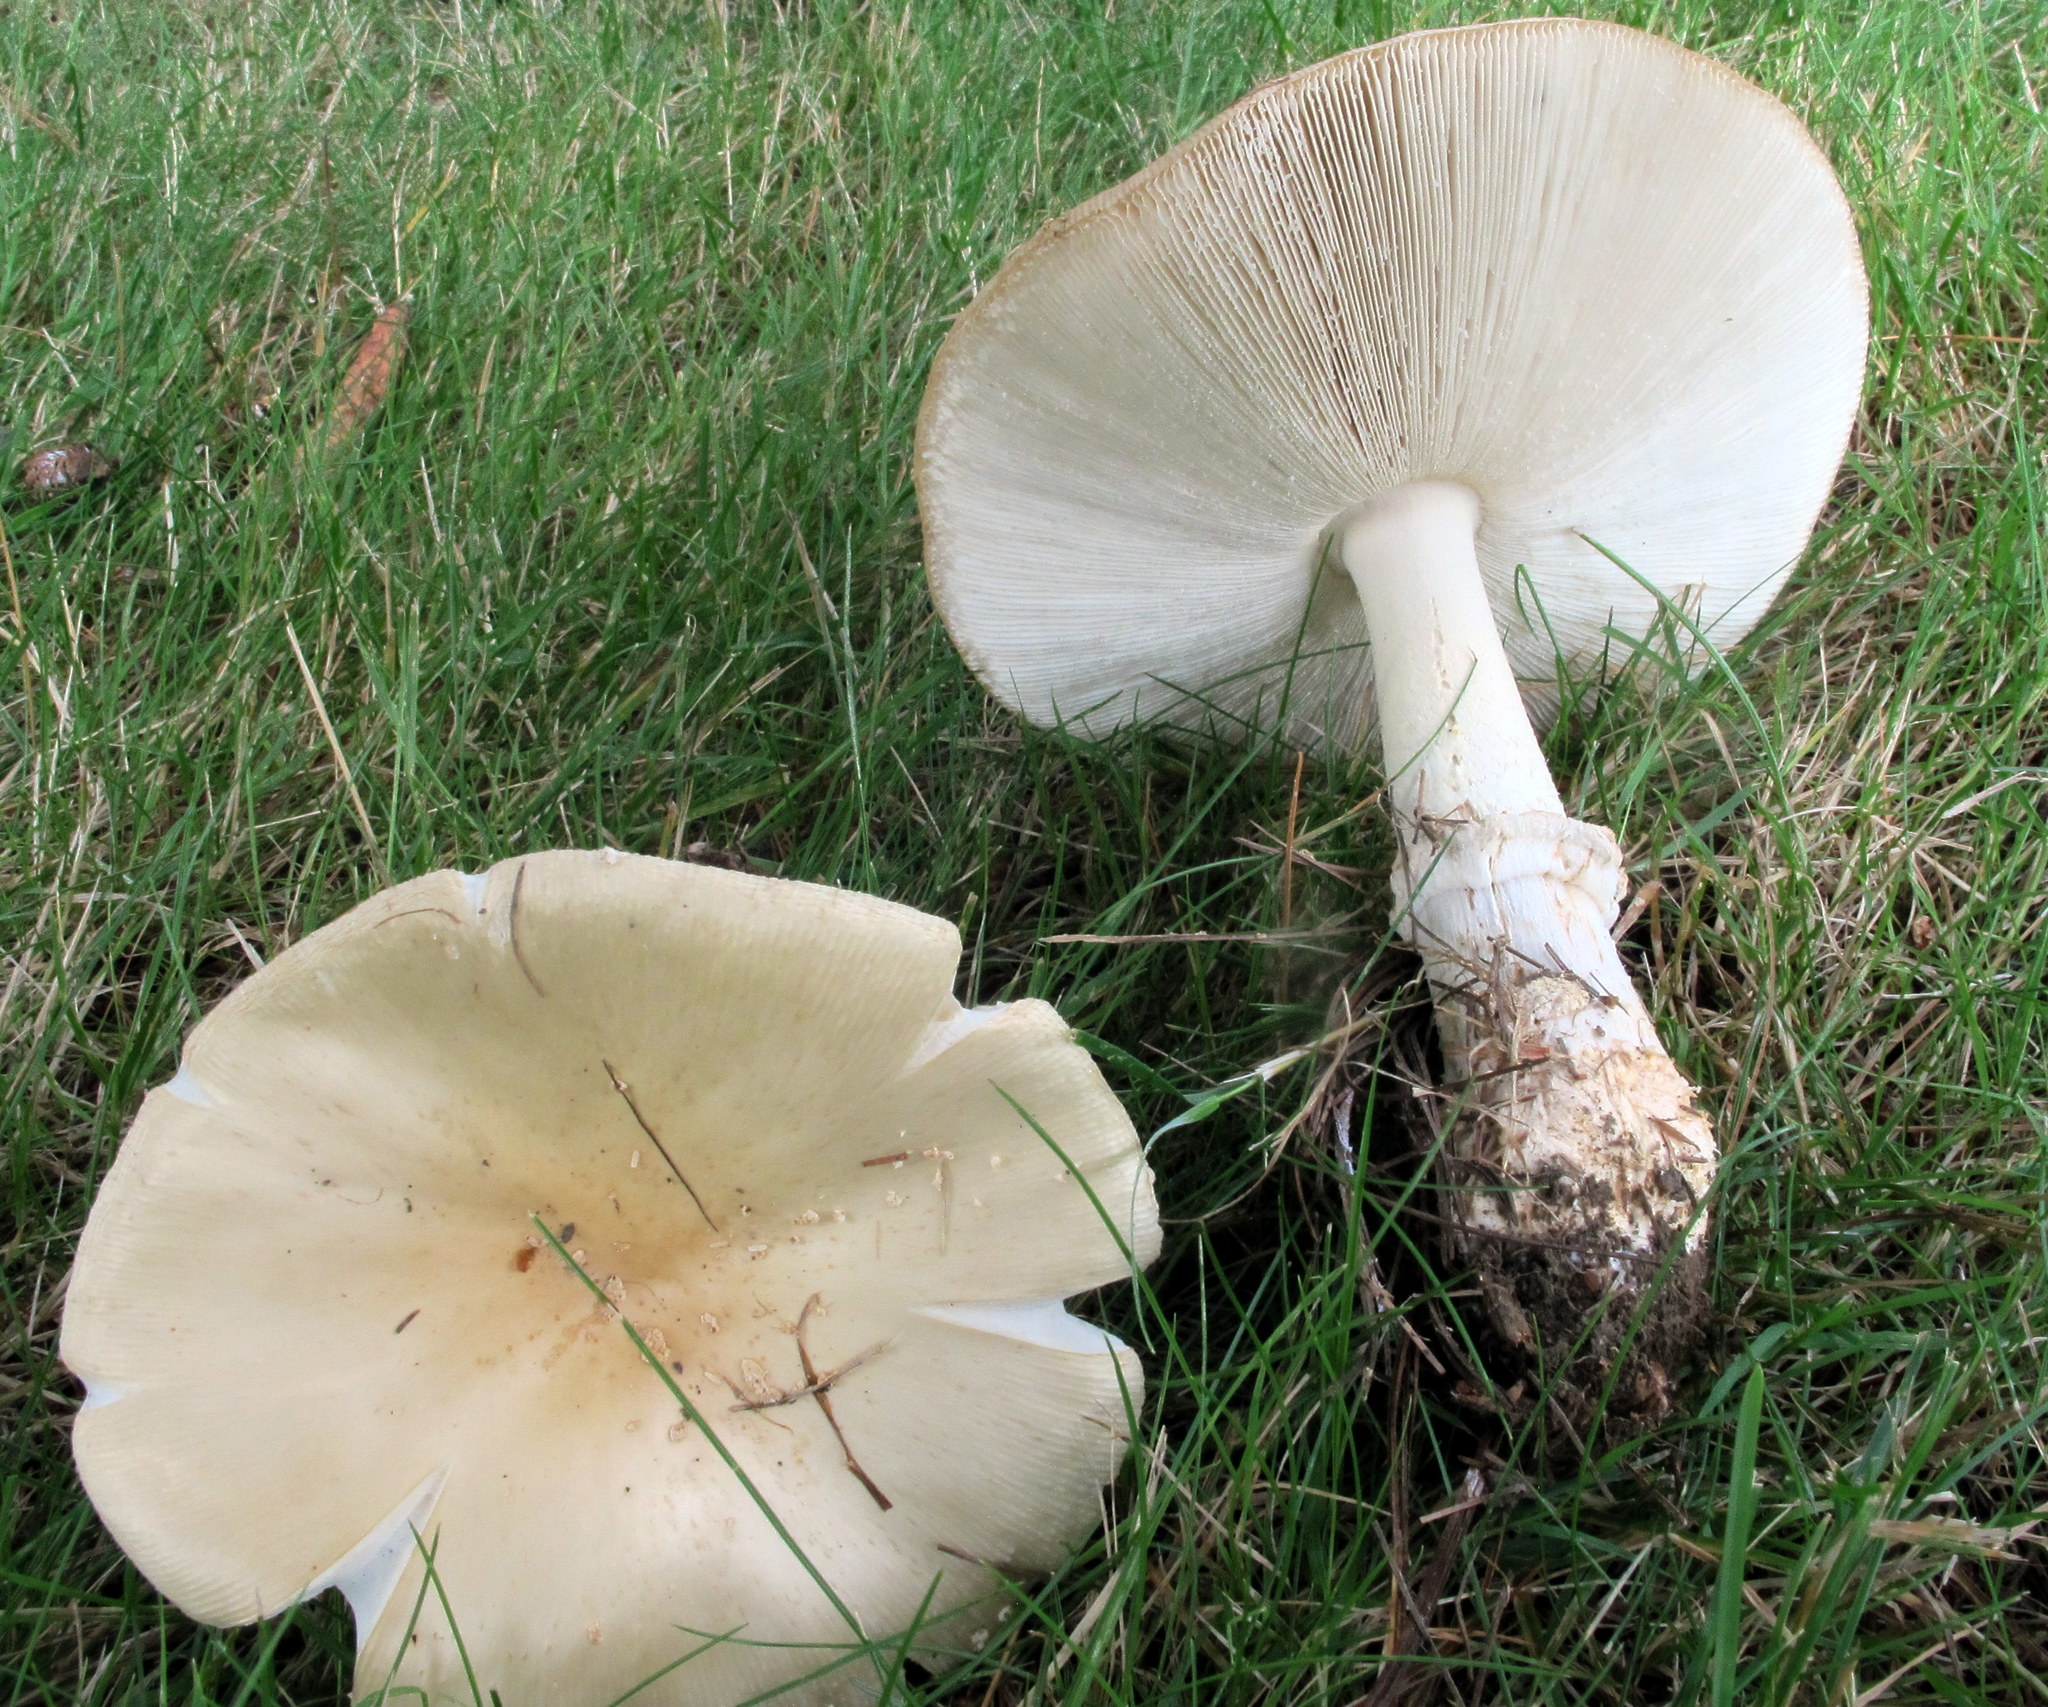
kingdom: Fungi
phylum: Basidiomycota
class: Agaricomycetes
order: Agaricales
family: Amanitaceae
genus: Amanita
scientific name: Amanita velatipes
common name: Great funnel-veil amanita
